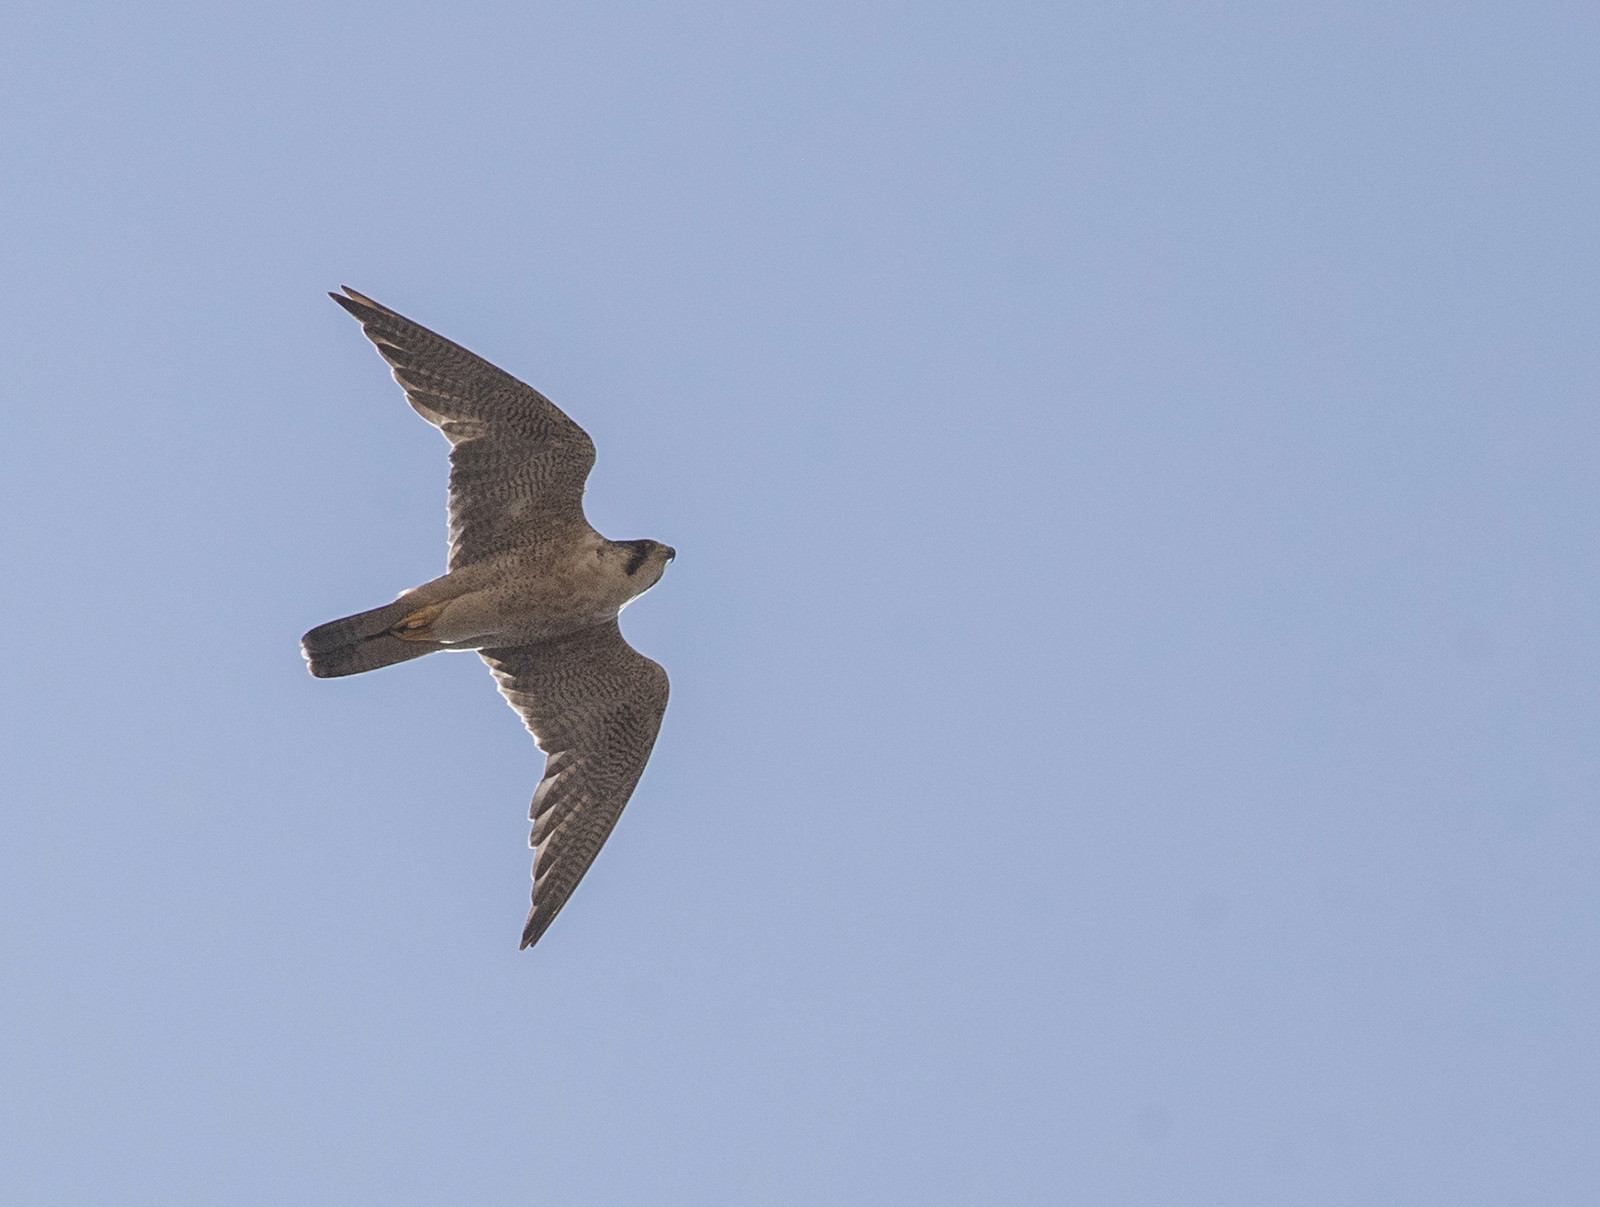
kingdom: Animalia
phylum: Chordata
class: Aves
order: Falconiformes
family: Falconidae
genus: Falco
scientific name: Falco peregrinus
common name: Peregrine falcon
